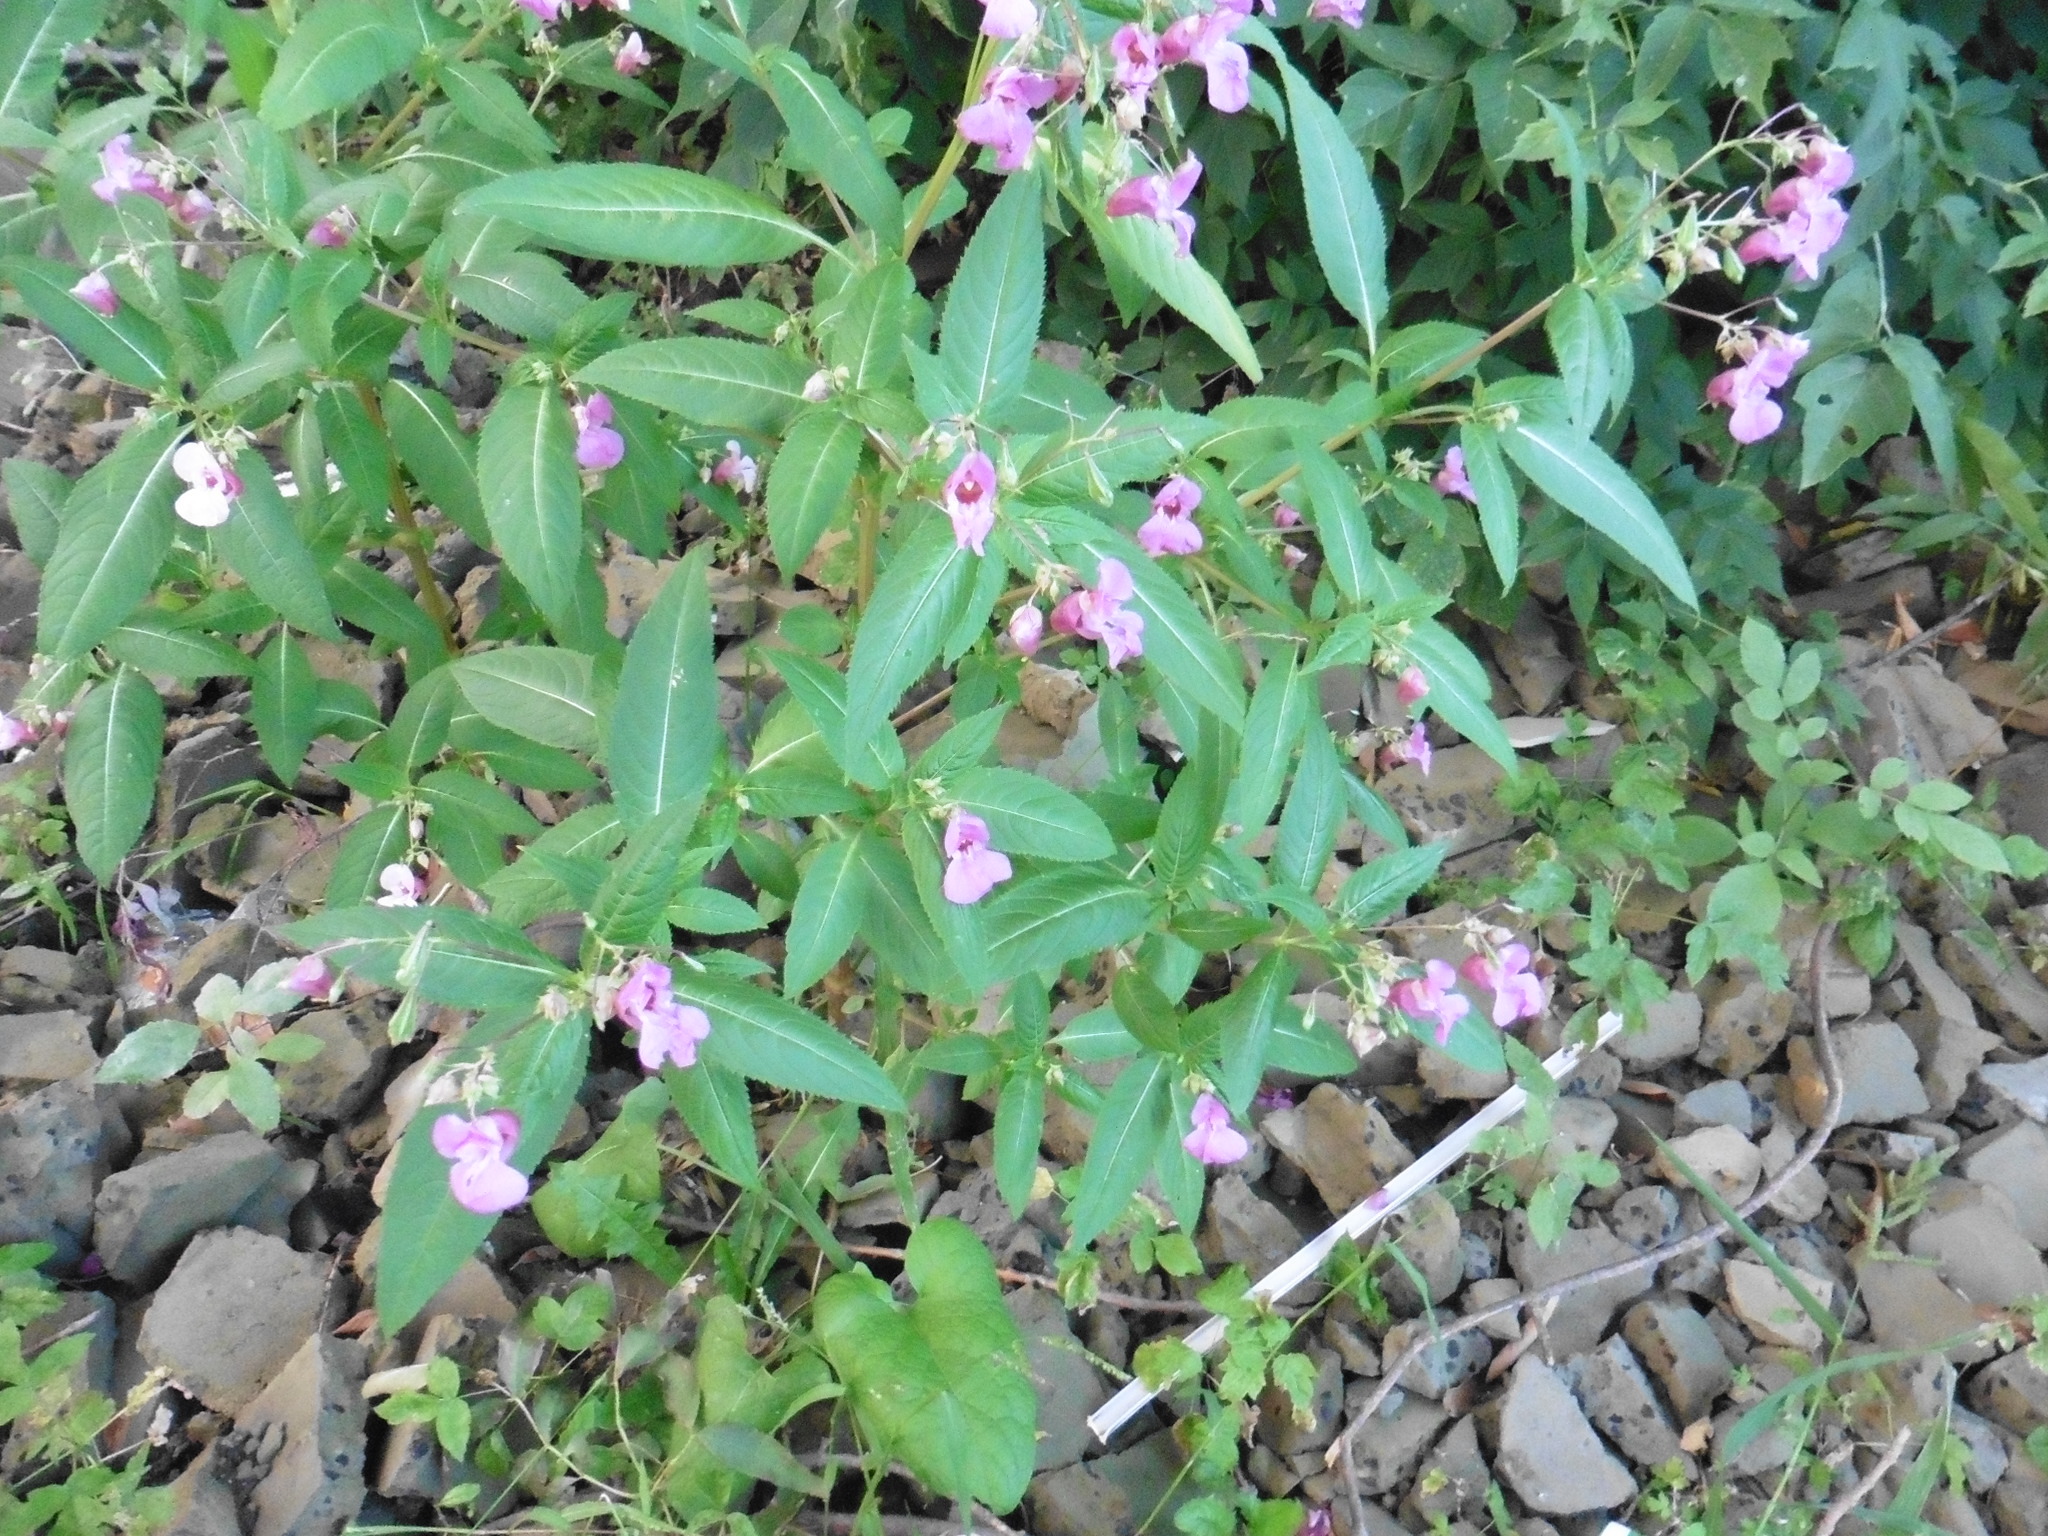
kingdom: Plantae
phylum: Tracheophyta
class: Magnoliopsida
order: Ericales
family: Balsaminaceae
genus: Impatiens
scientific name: Impatiens glandulifera
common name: Himalayan balsam
